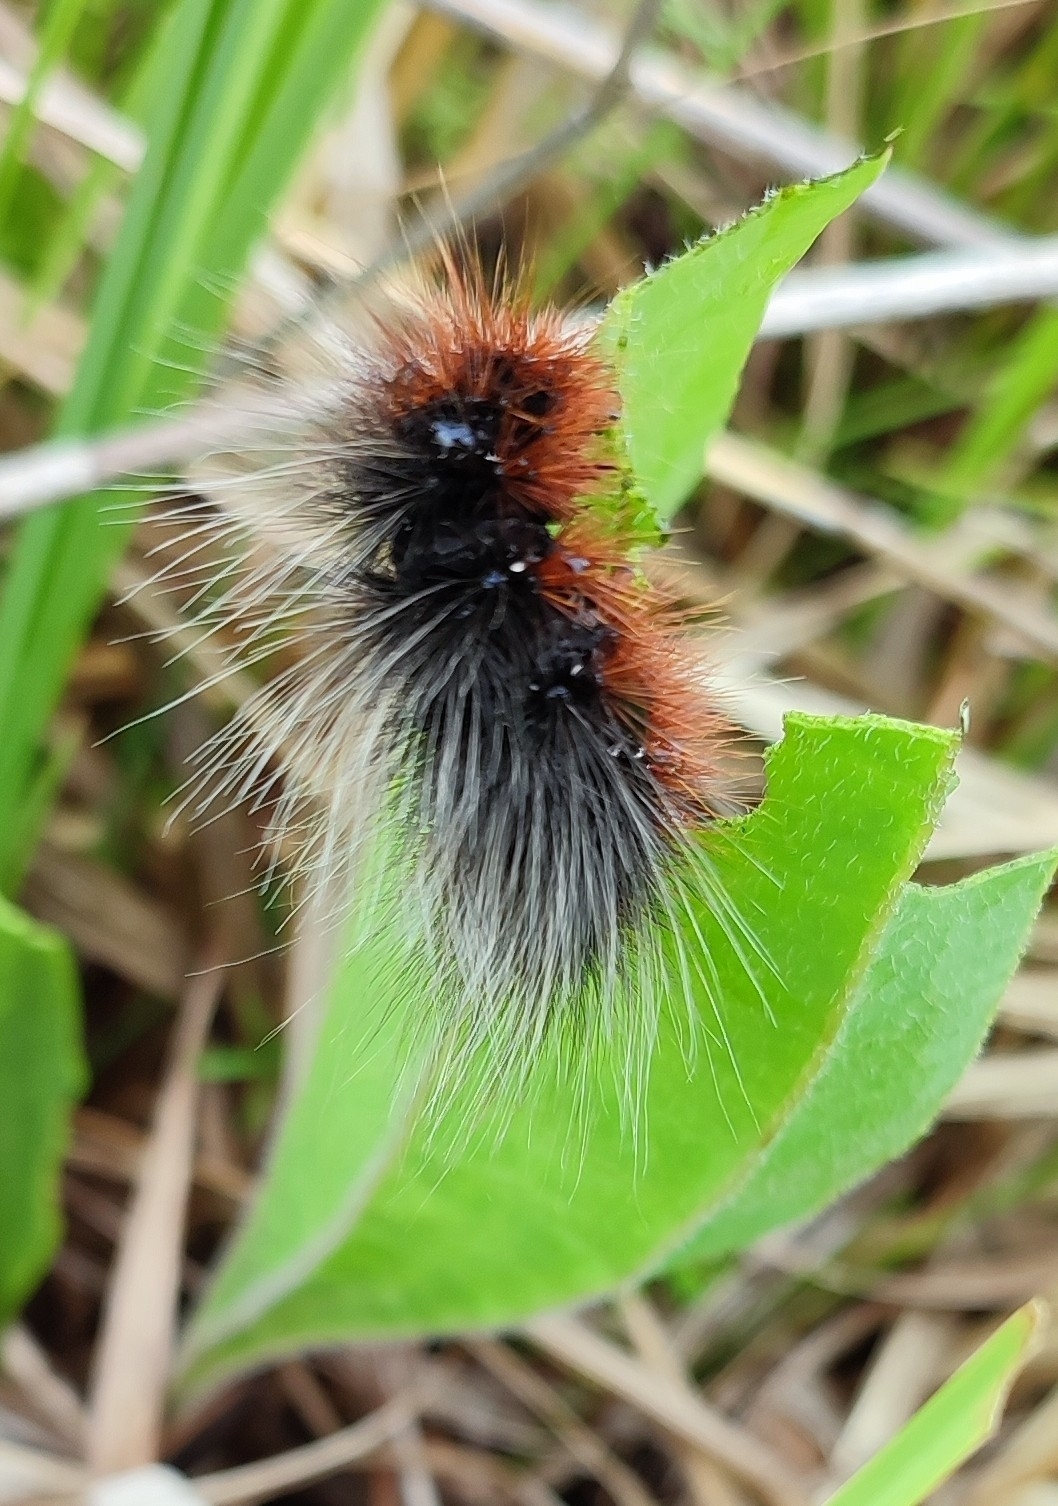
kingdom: Animalia
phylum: Arthropoda
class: Insecta
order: Lepidoptera
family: Erebidae
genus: Arctia
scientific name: Arctia caja
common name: Garden tiger
